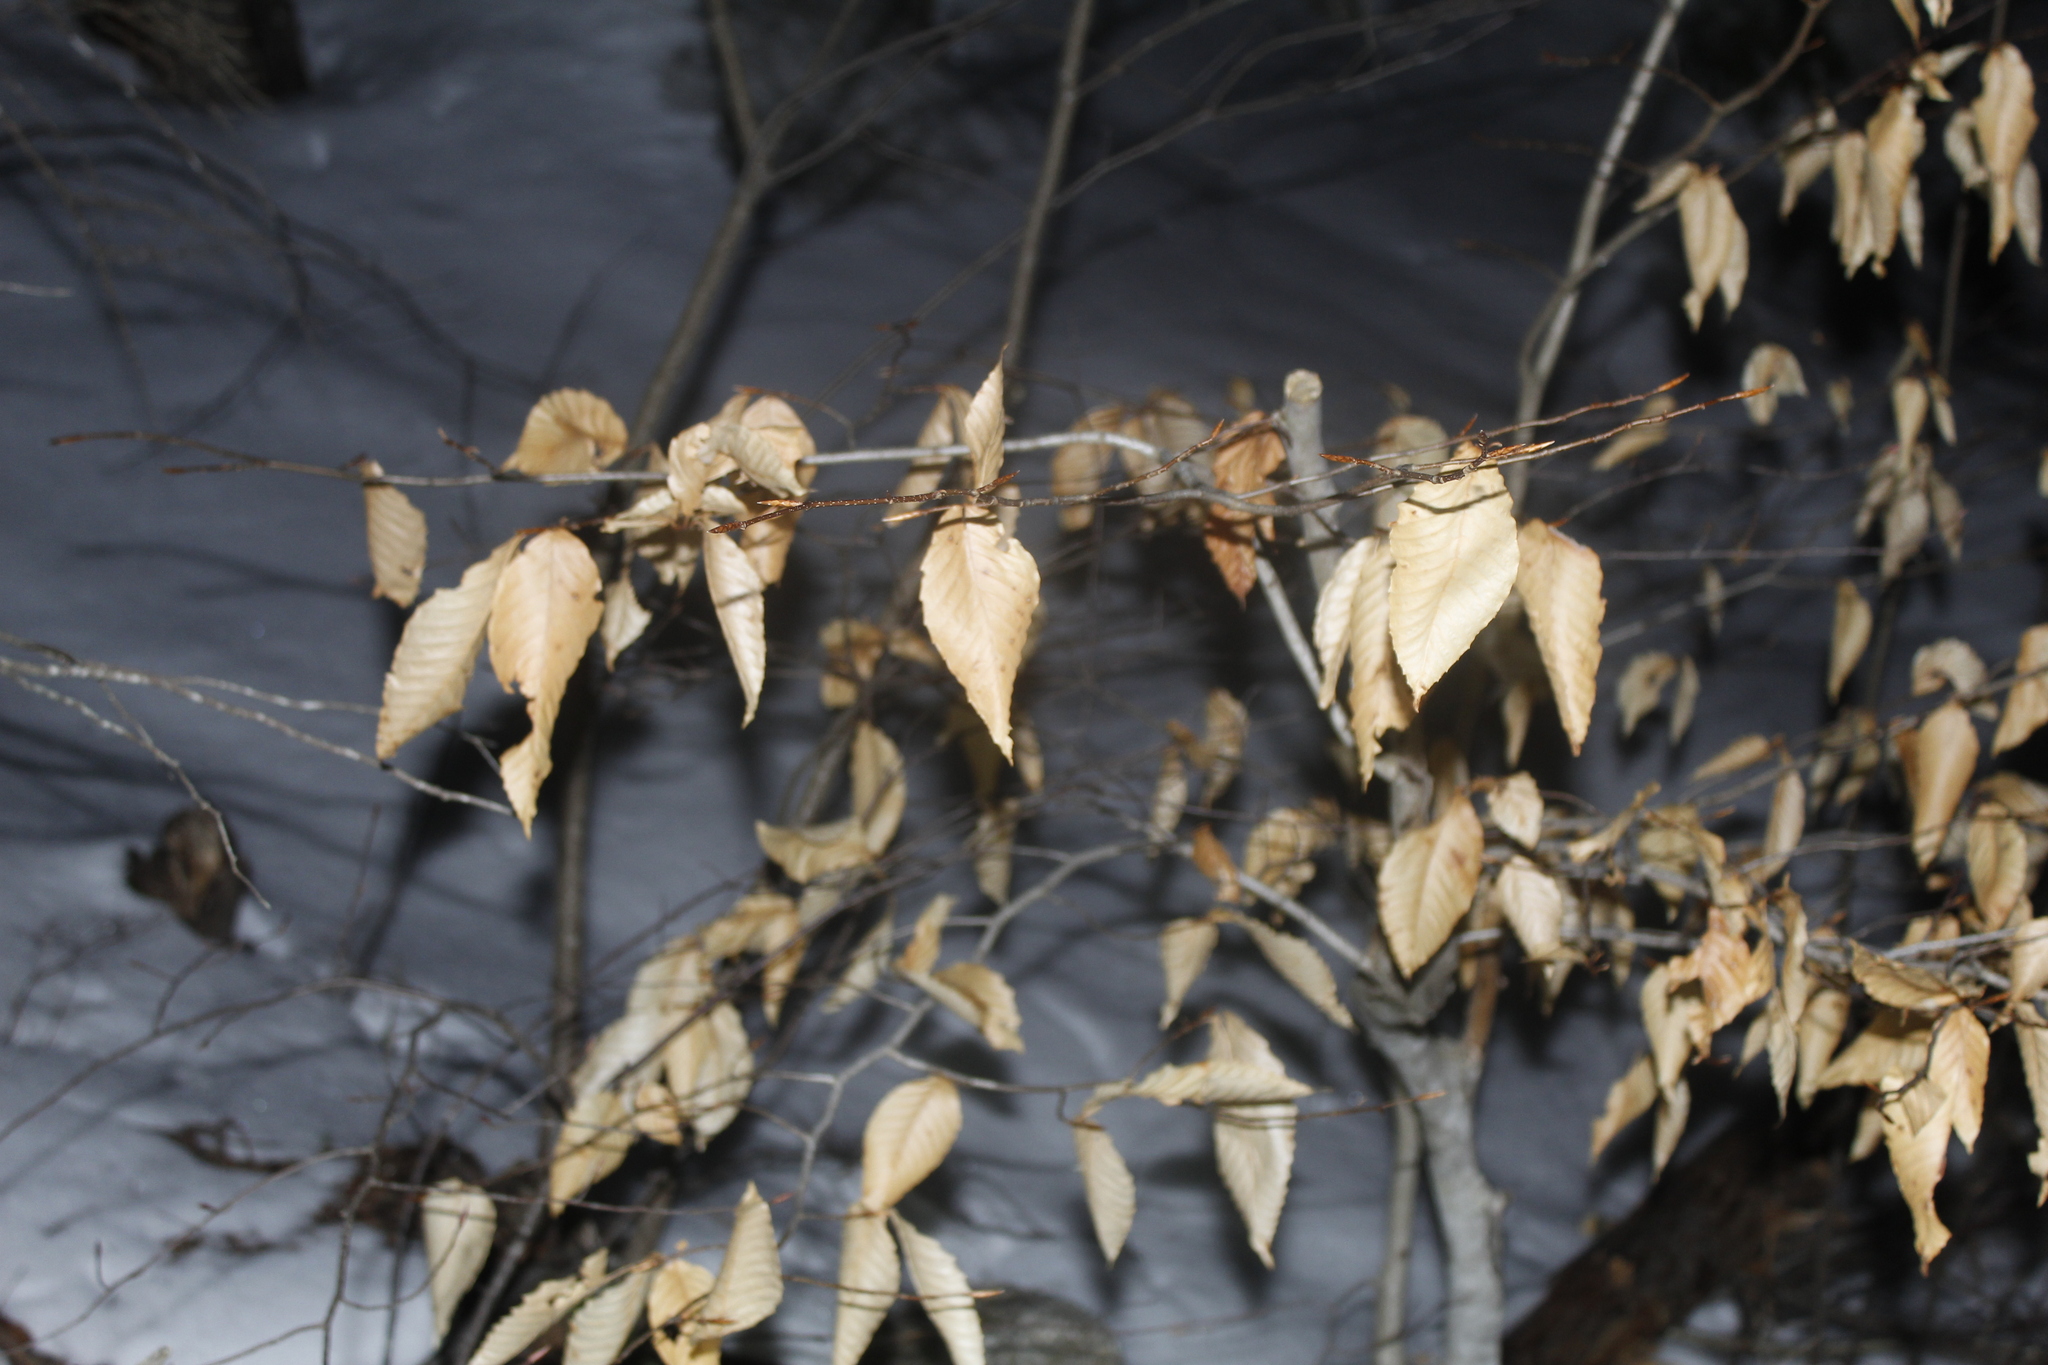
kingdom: Plantae
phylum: Tracheophyta
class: Magnoliopsida
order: Fagales
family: Fagaceae
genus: Fagus
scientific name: Fagus grandifolia
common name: American beech
